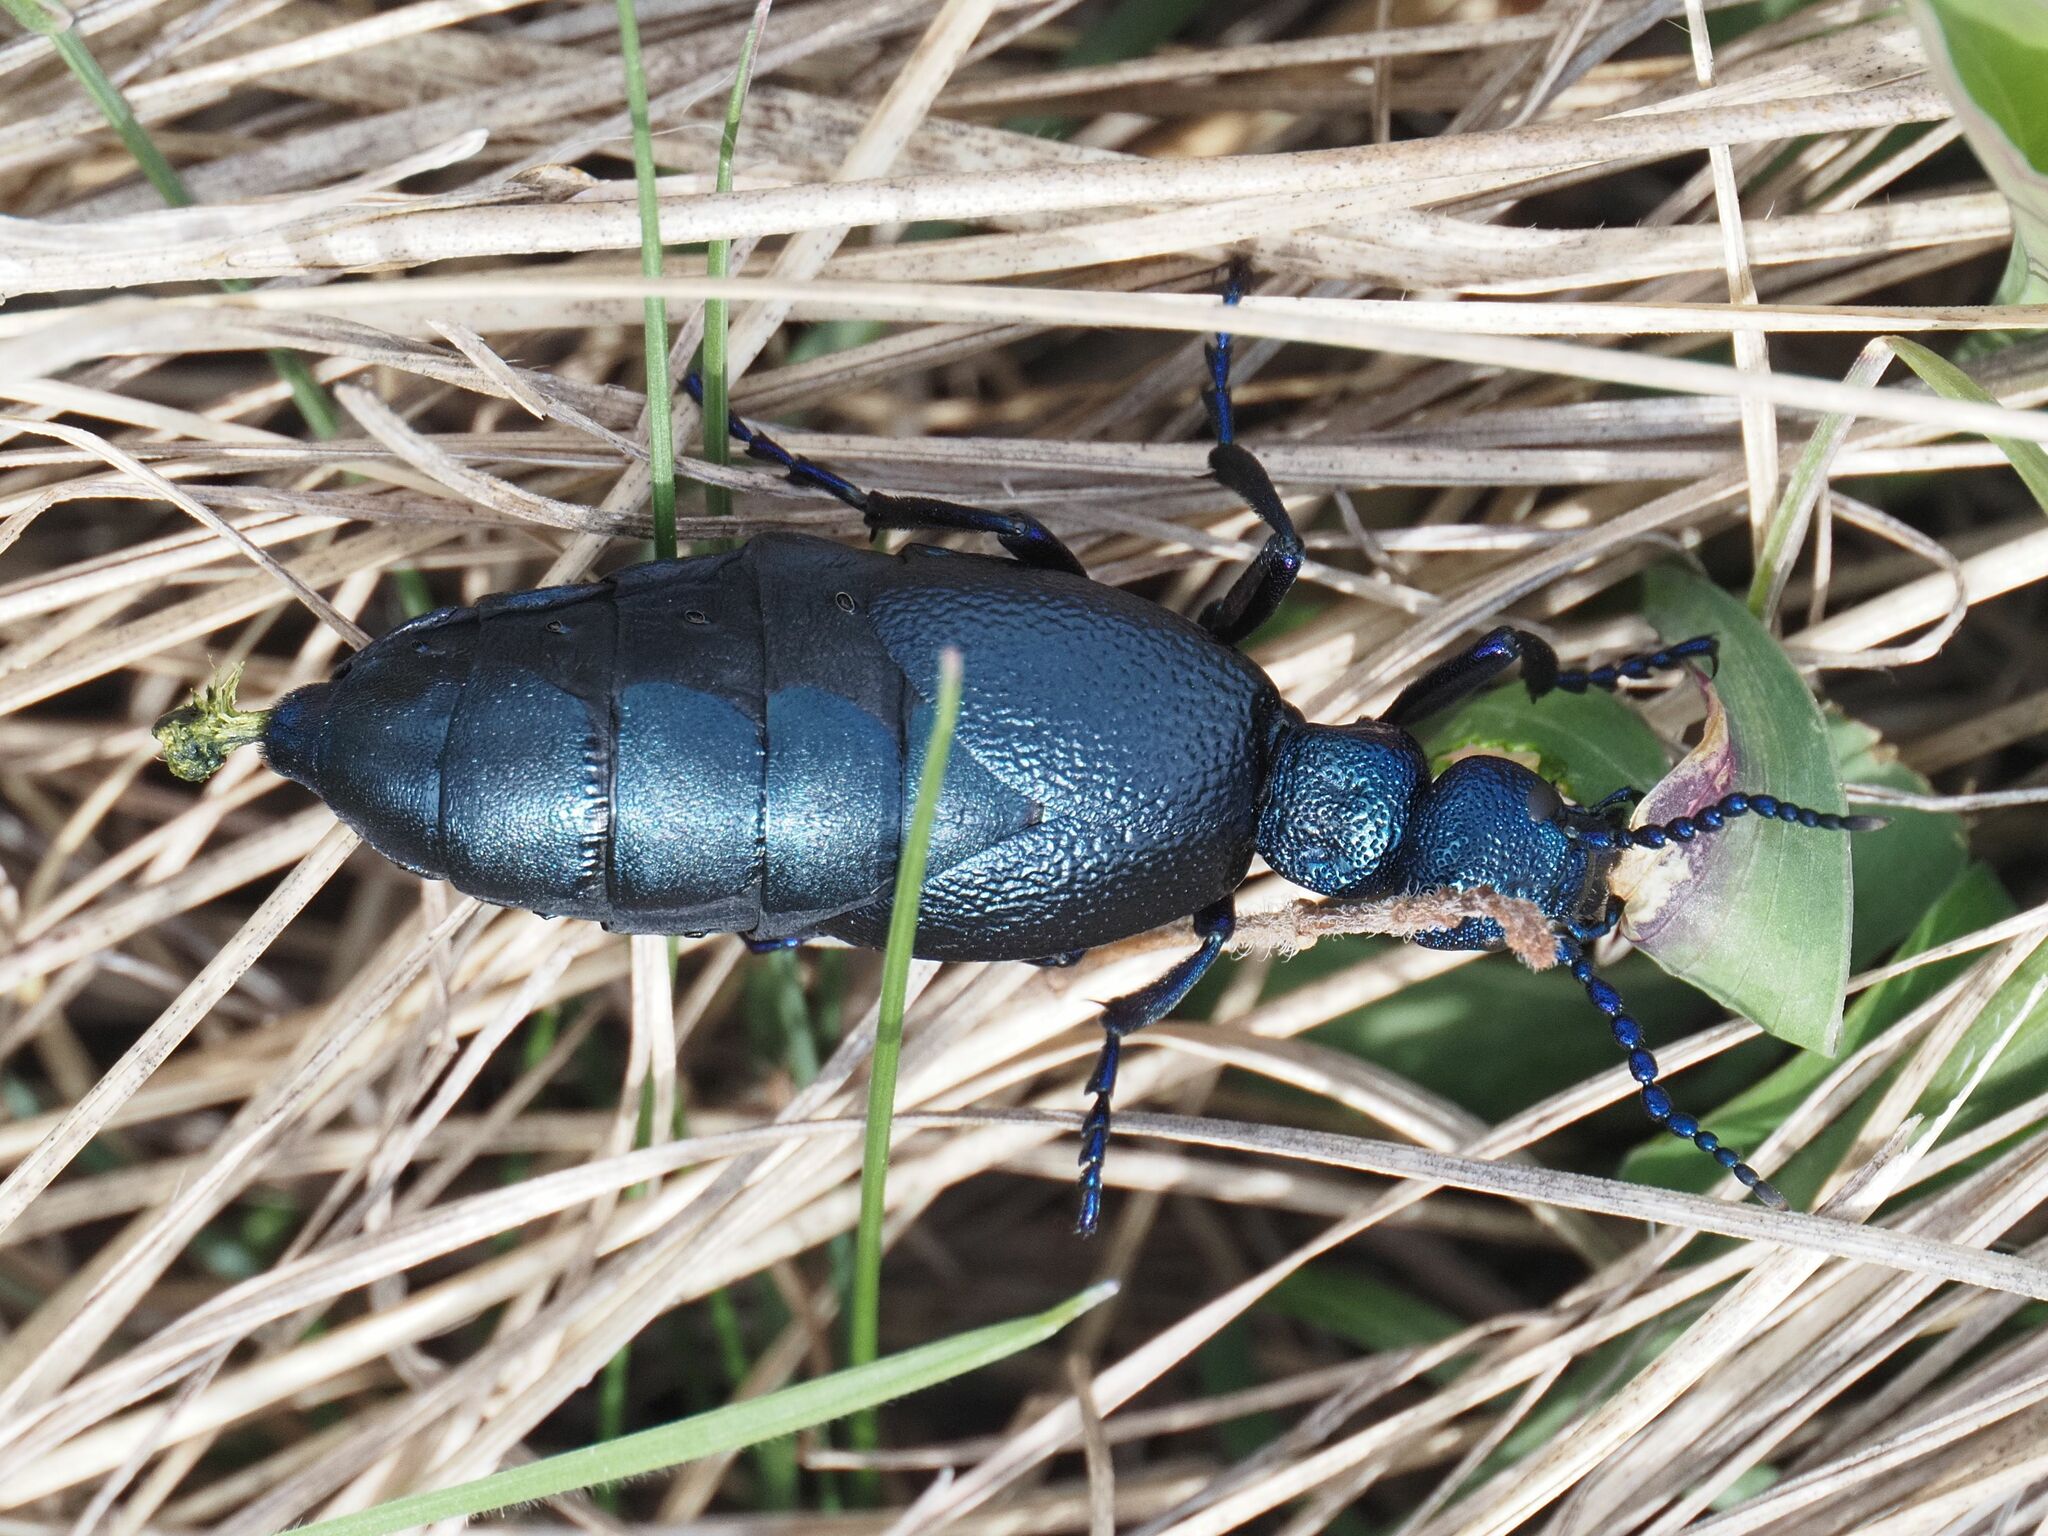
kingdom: Animalia
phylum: Arthropoda
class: Insecta
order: Coleoptera
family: Meloidae
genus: Meloe
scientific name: Meloe proscarabaeus
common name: Black oil-beetle
